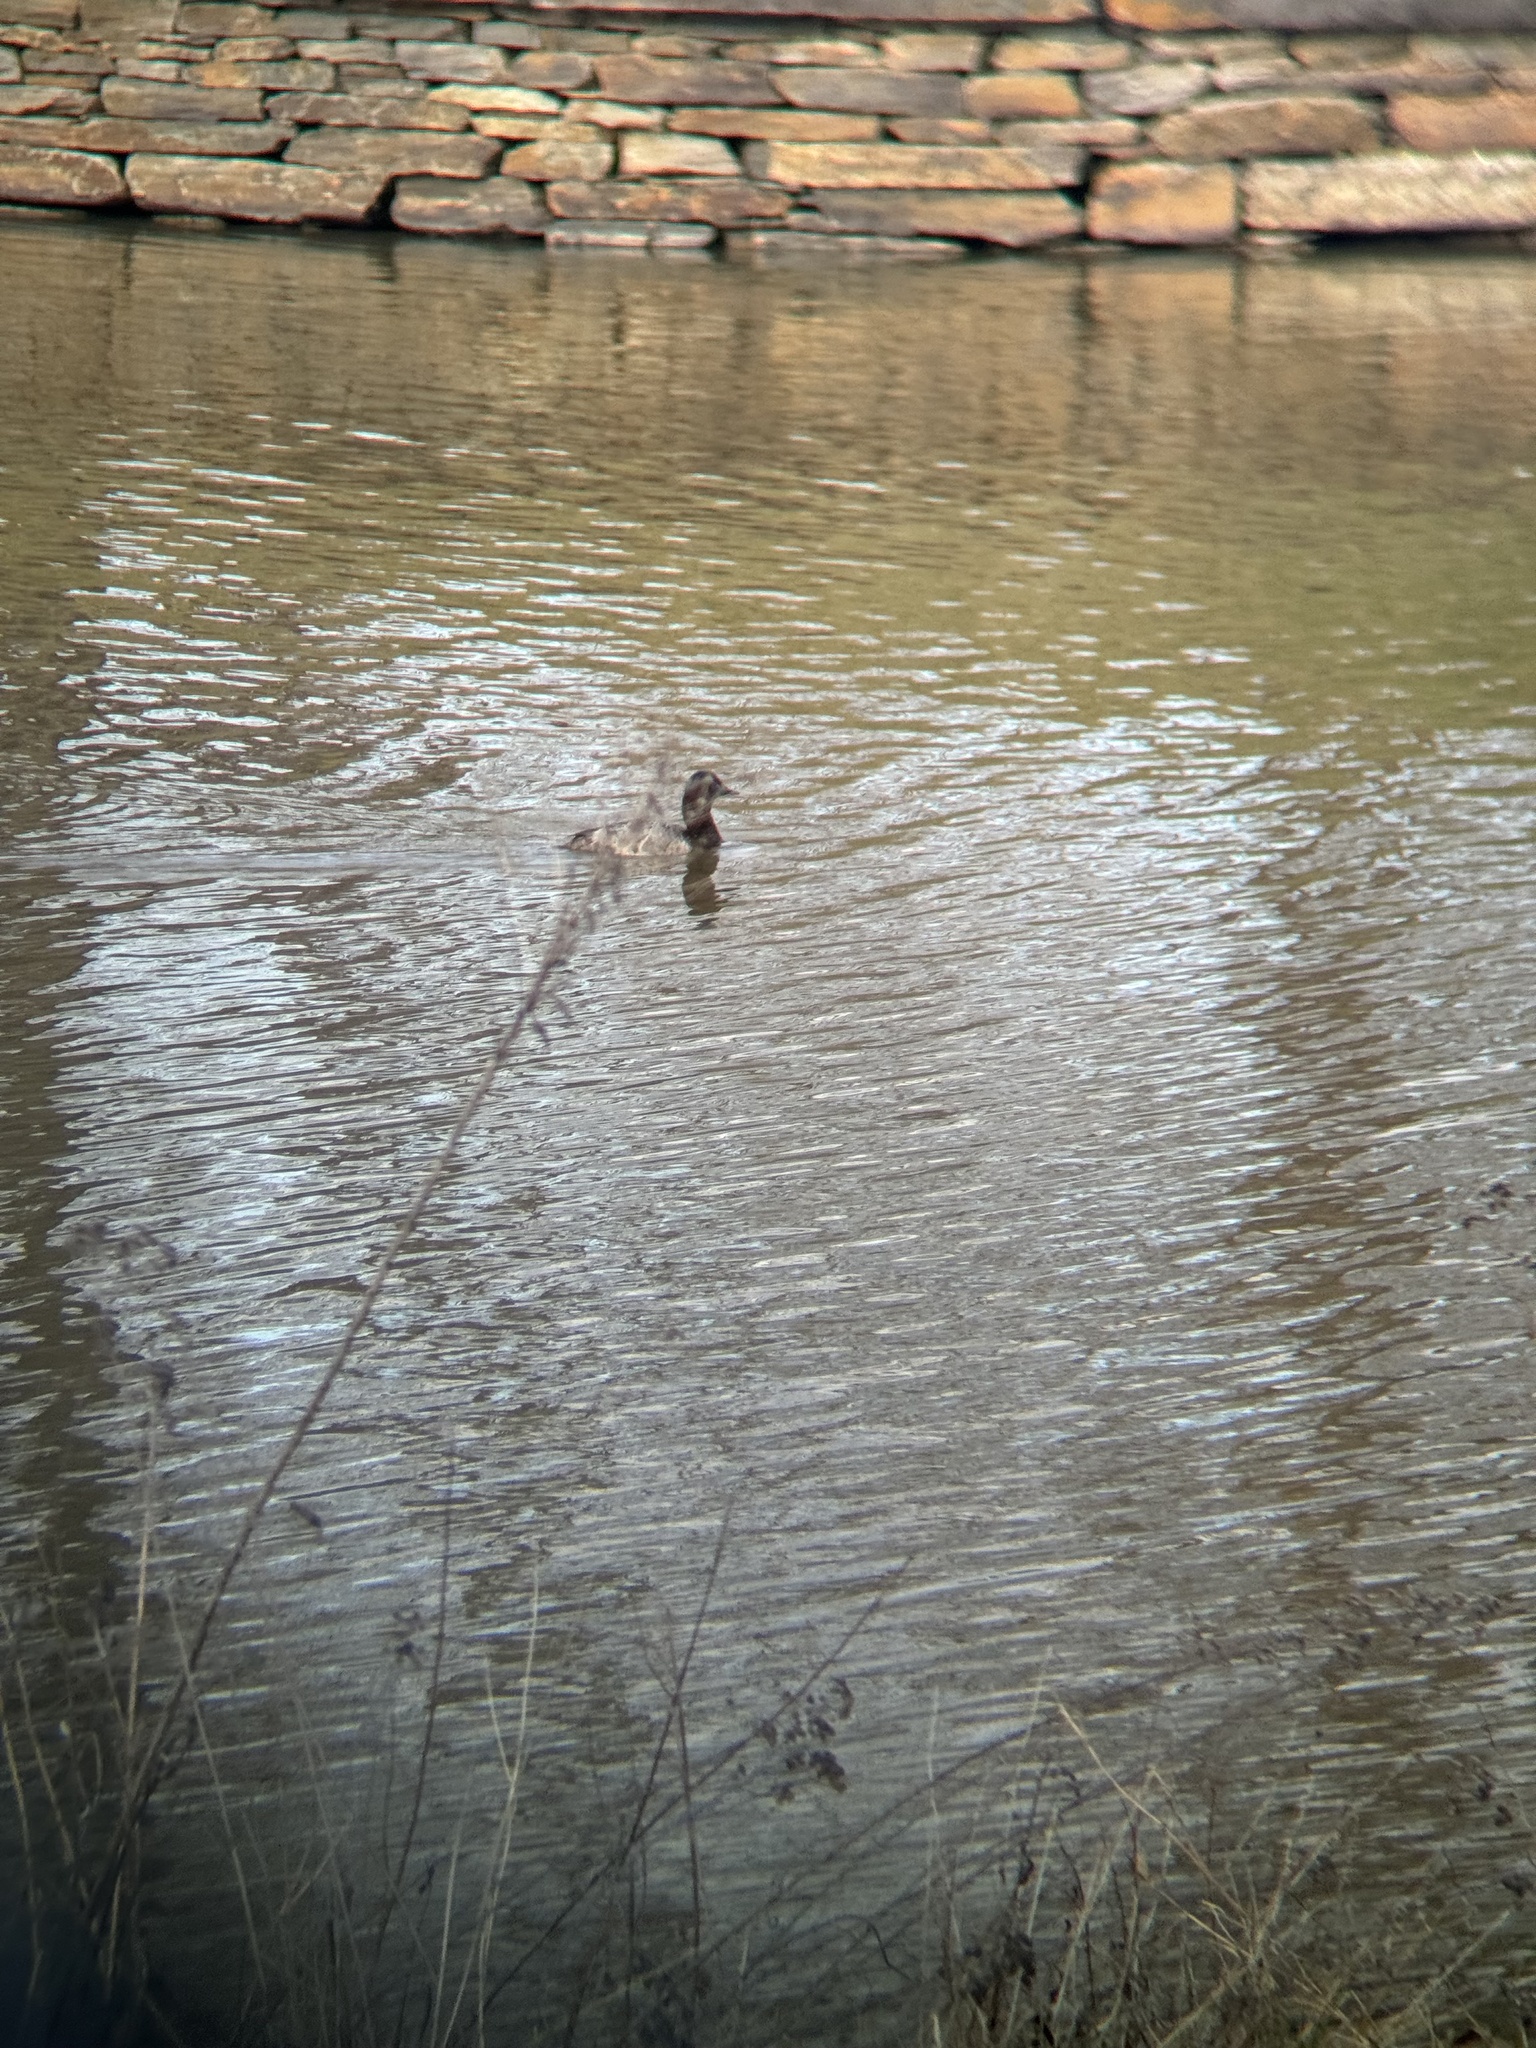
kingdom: Animalia
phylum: Chordata
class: Aves
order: Anseriformes
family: Anatidae
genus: Aythya
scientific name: Aythya valisineria
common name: Canvasback
